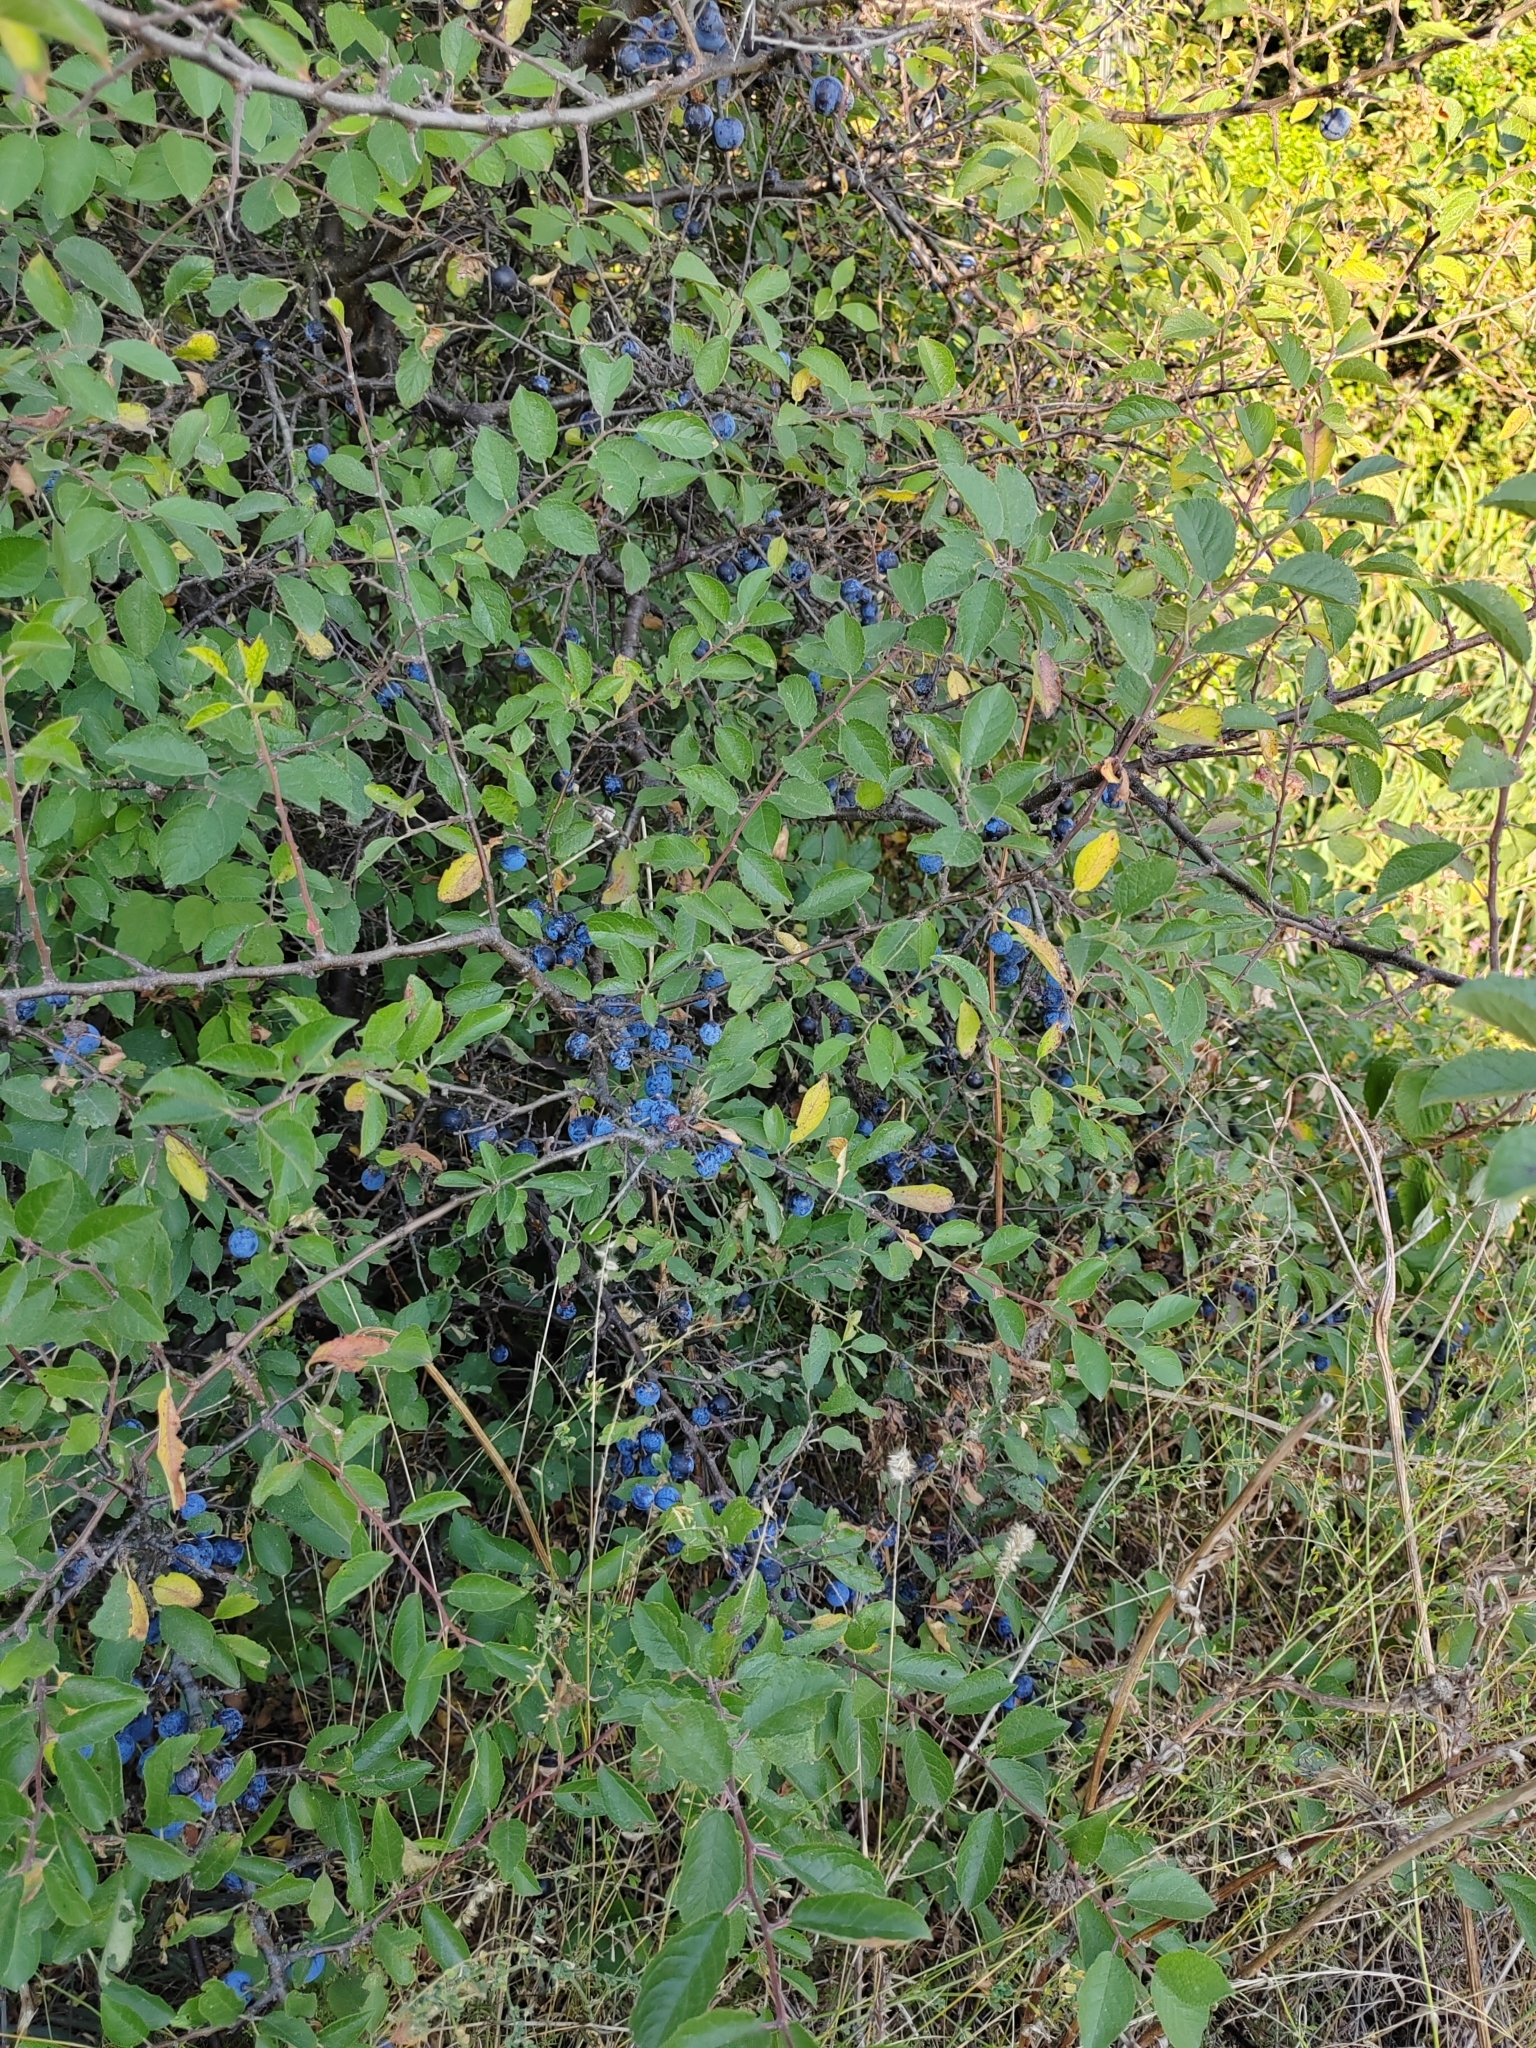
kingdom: Plantae
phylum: Tracheophyta
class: Magnoliopsida
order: Rosales
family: Rosaceae
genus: Prunus
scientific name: Prunus spinosa
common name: Blackthorn
